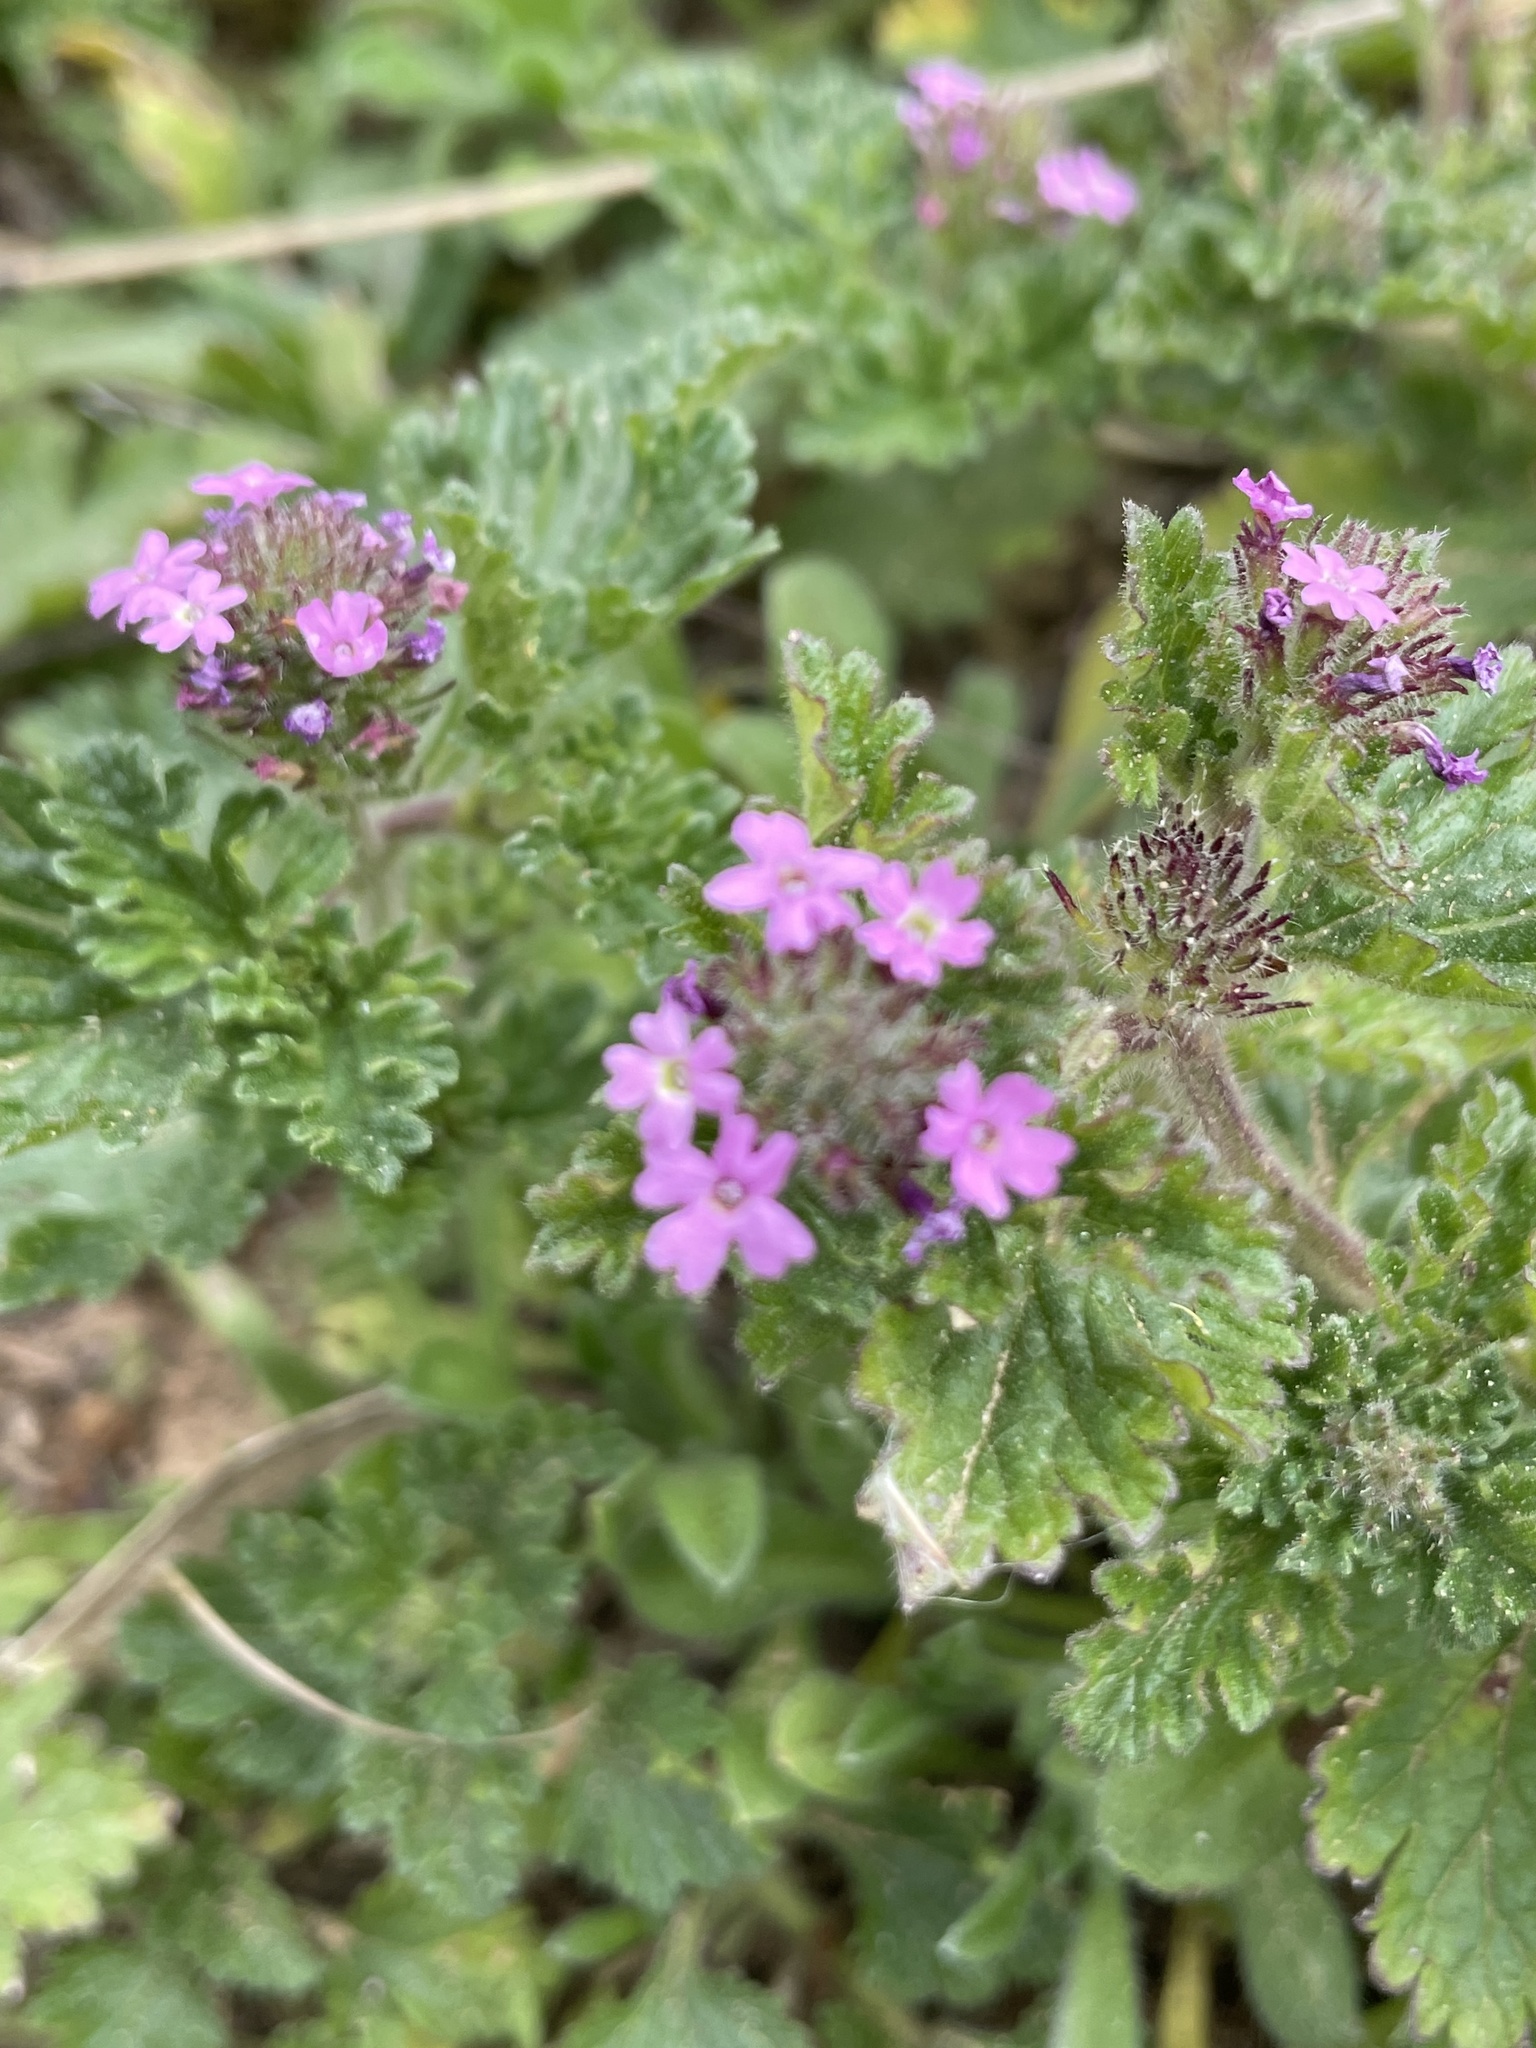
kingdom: Plantae
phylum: Tracheophyta
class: Magnoliopsida
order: Lamiales
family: Verbenaceae
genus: Verbena
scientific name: Verbena pumila
